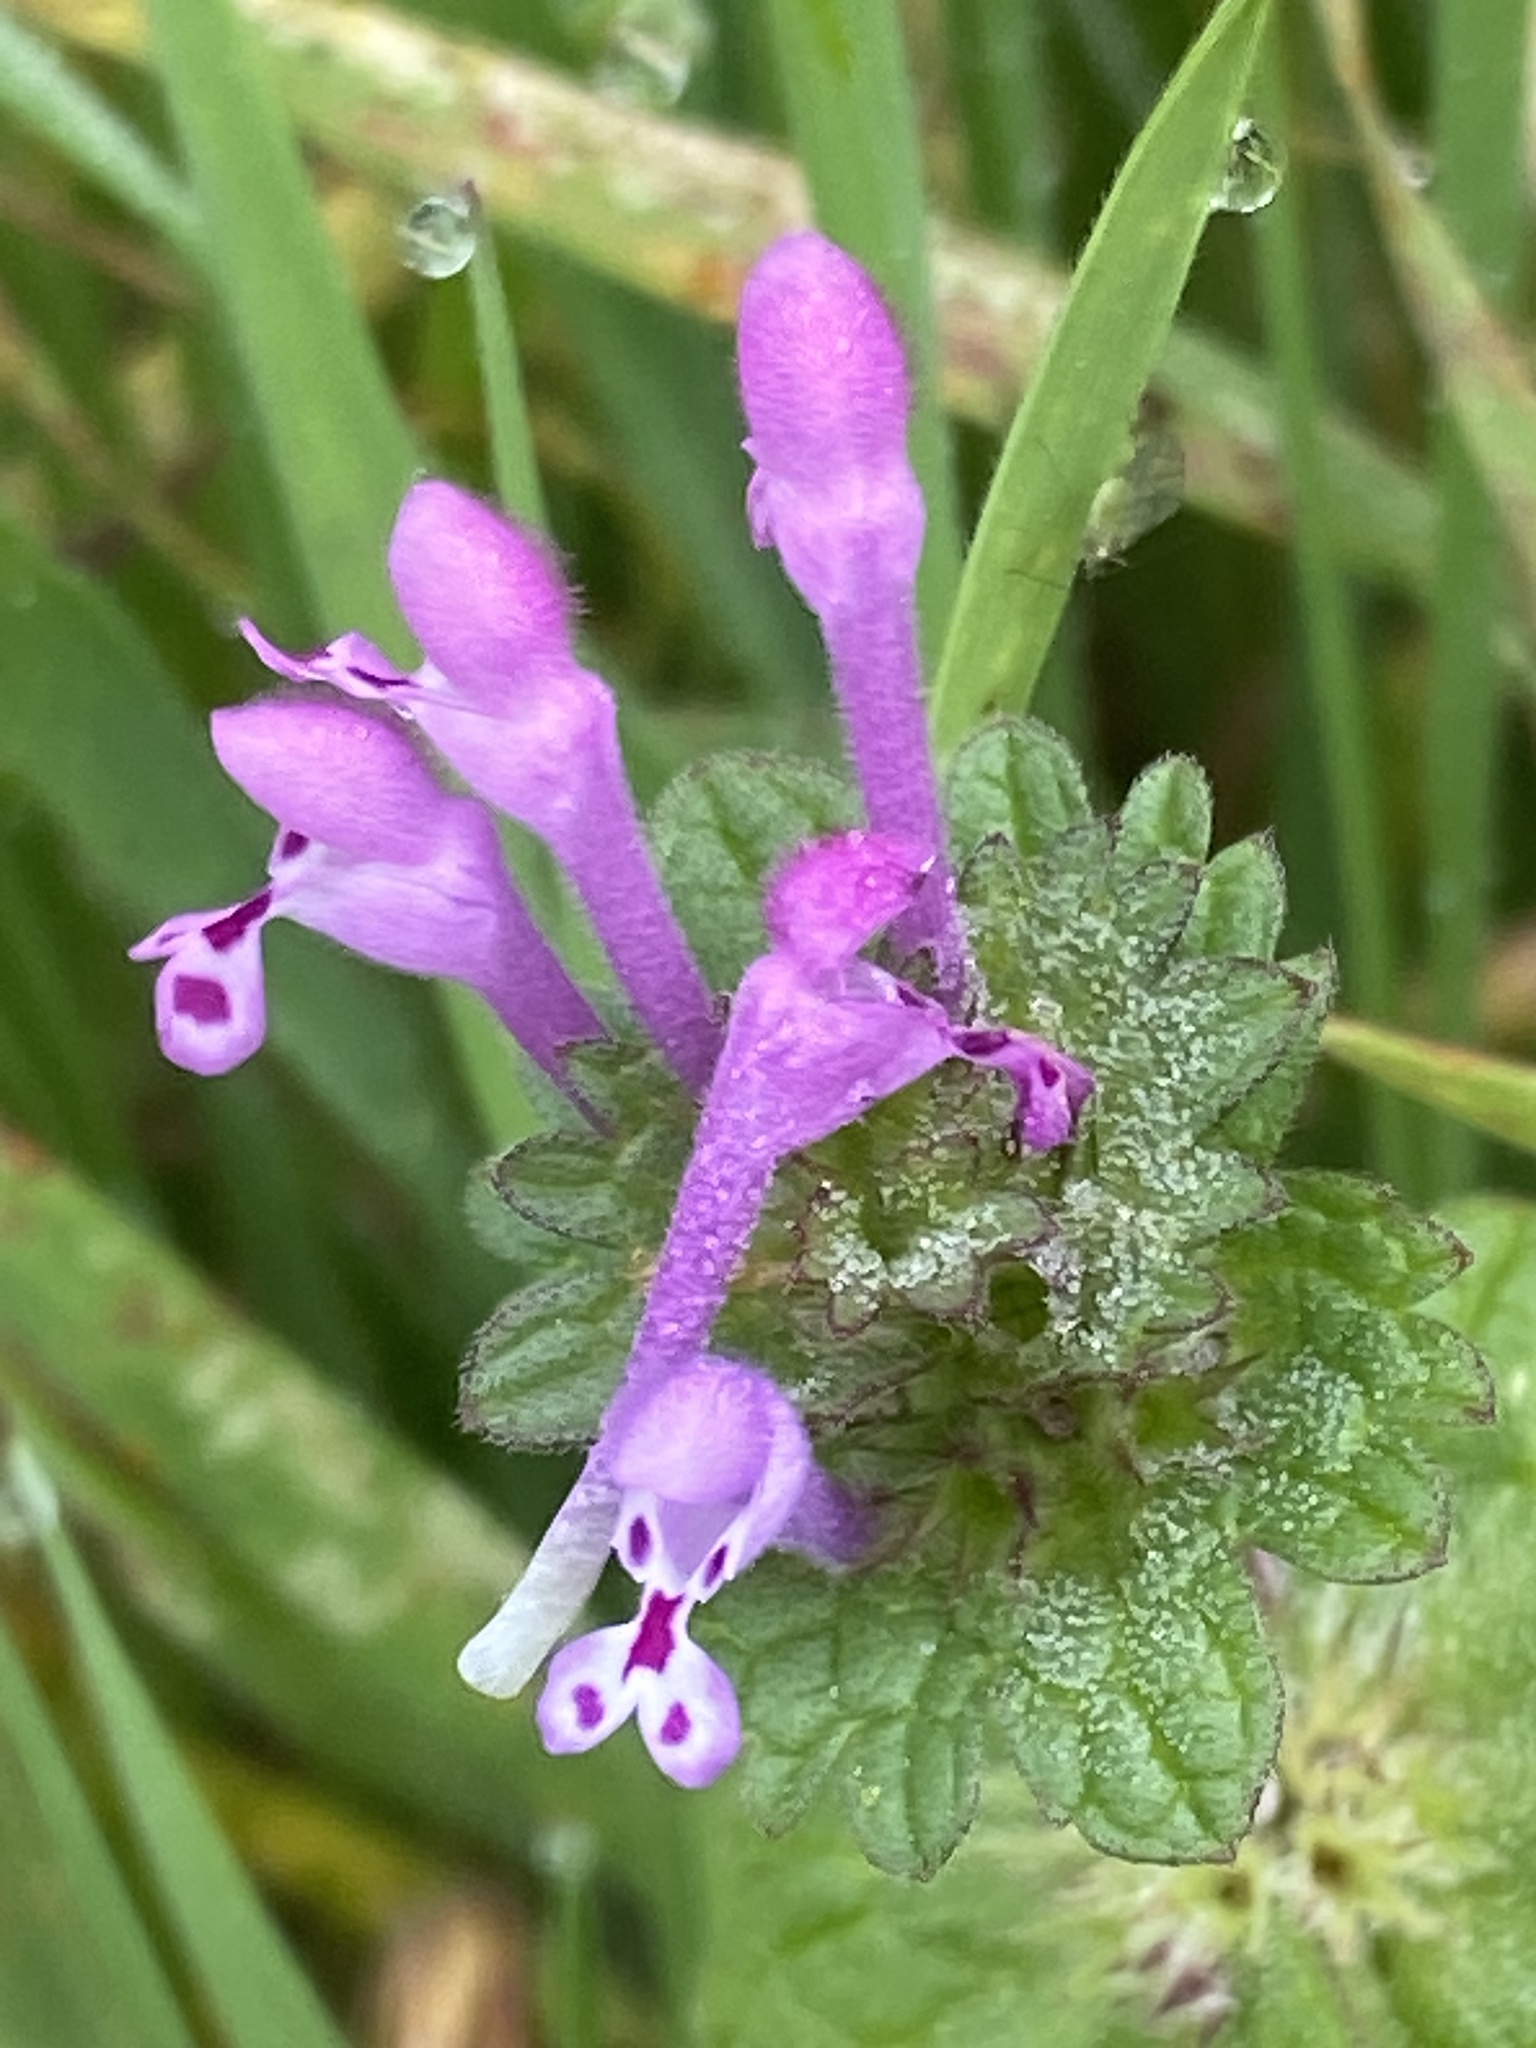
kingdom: Plantae
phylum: Tracheophyta
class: Magnoliopsida
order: Lamiales
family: Lamiaceae
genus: Lamium
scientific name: Lamium amplexicaule
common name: Henbit dead-nettle
